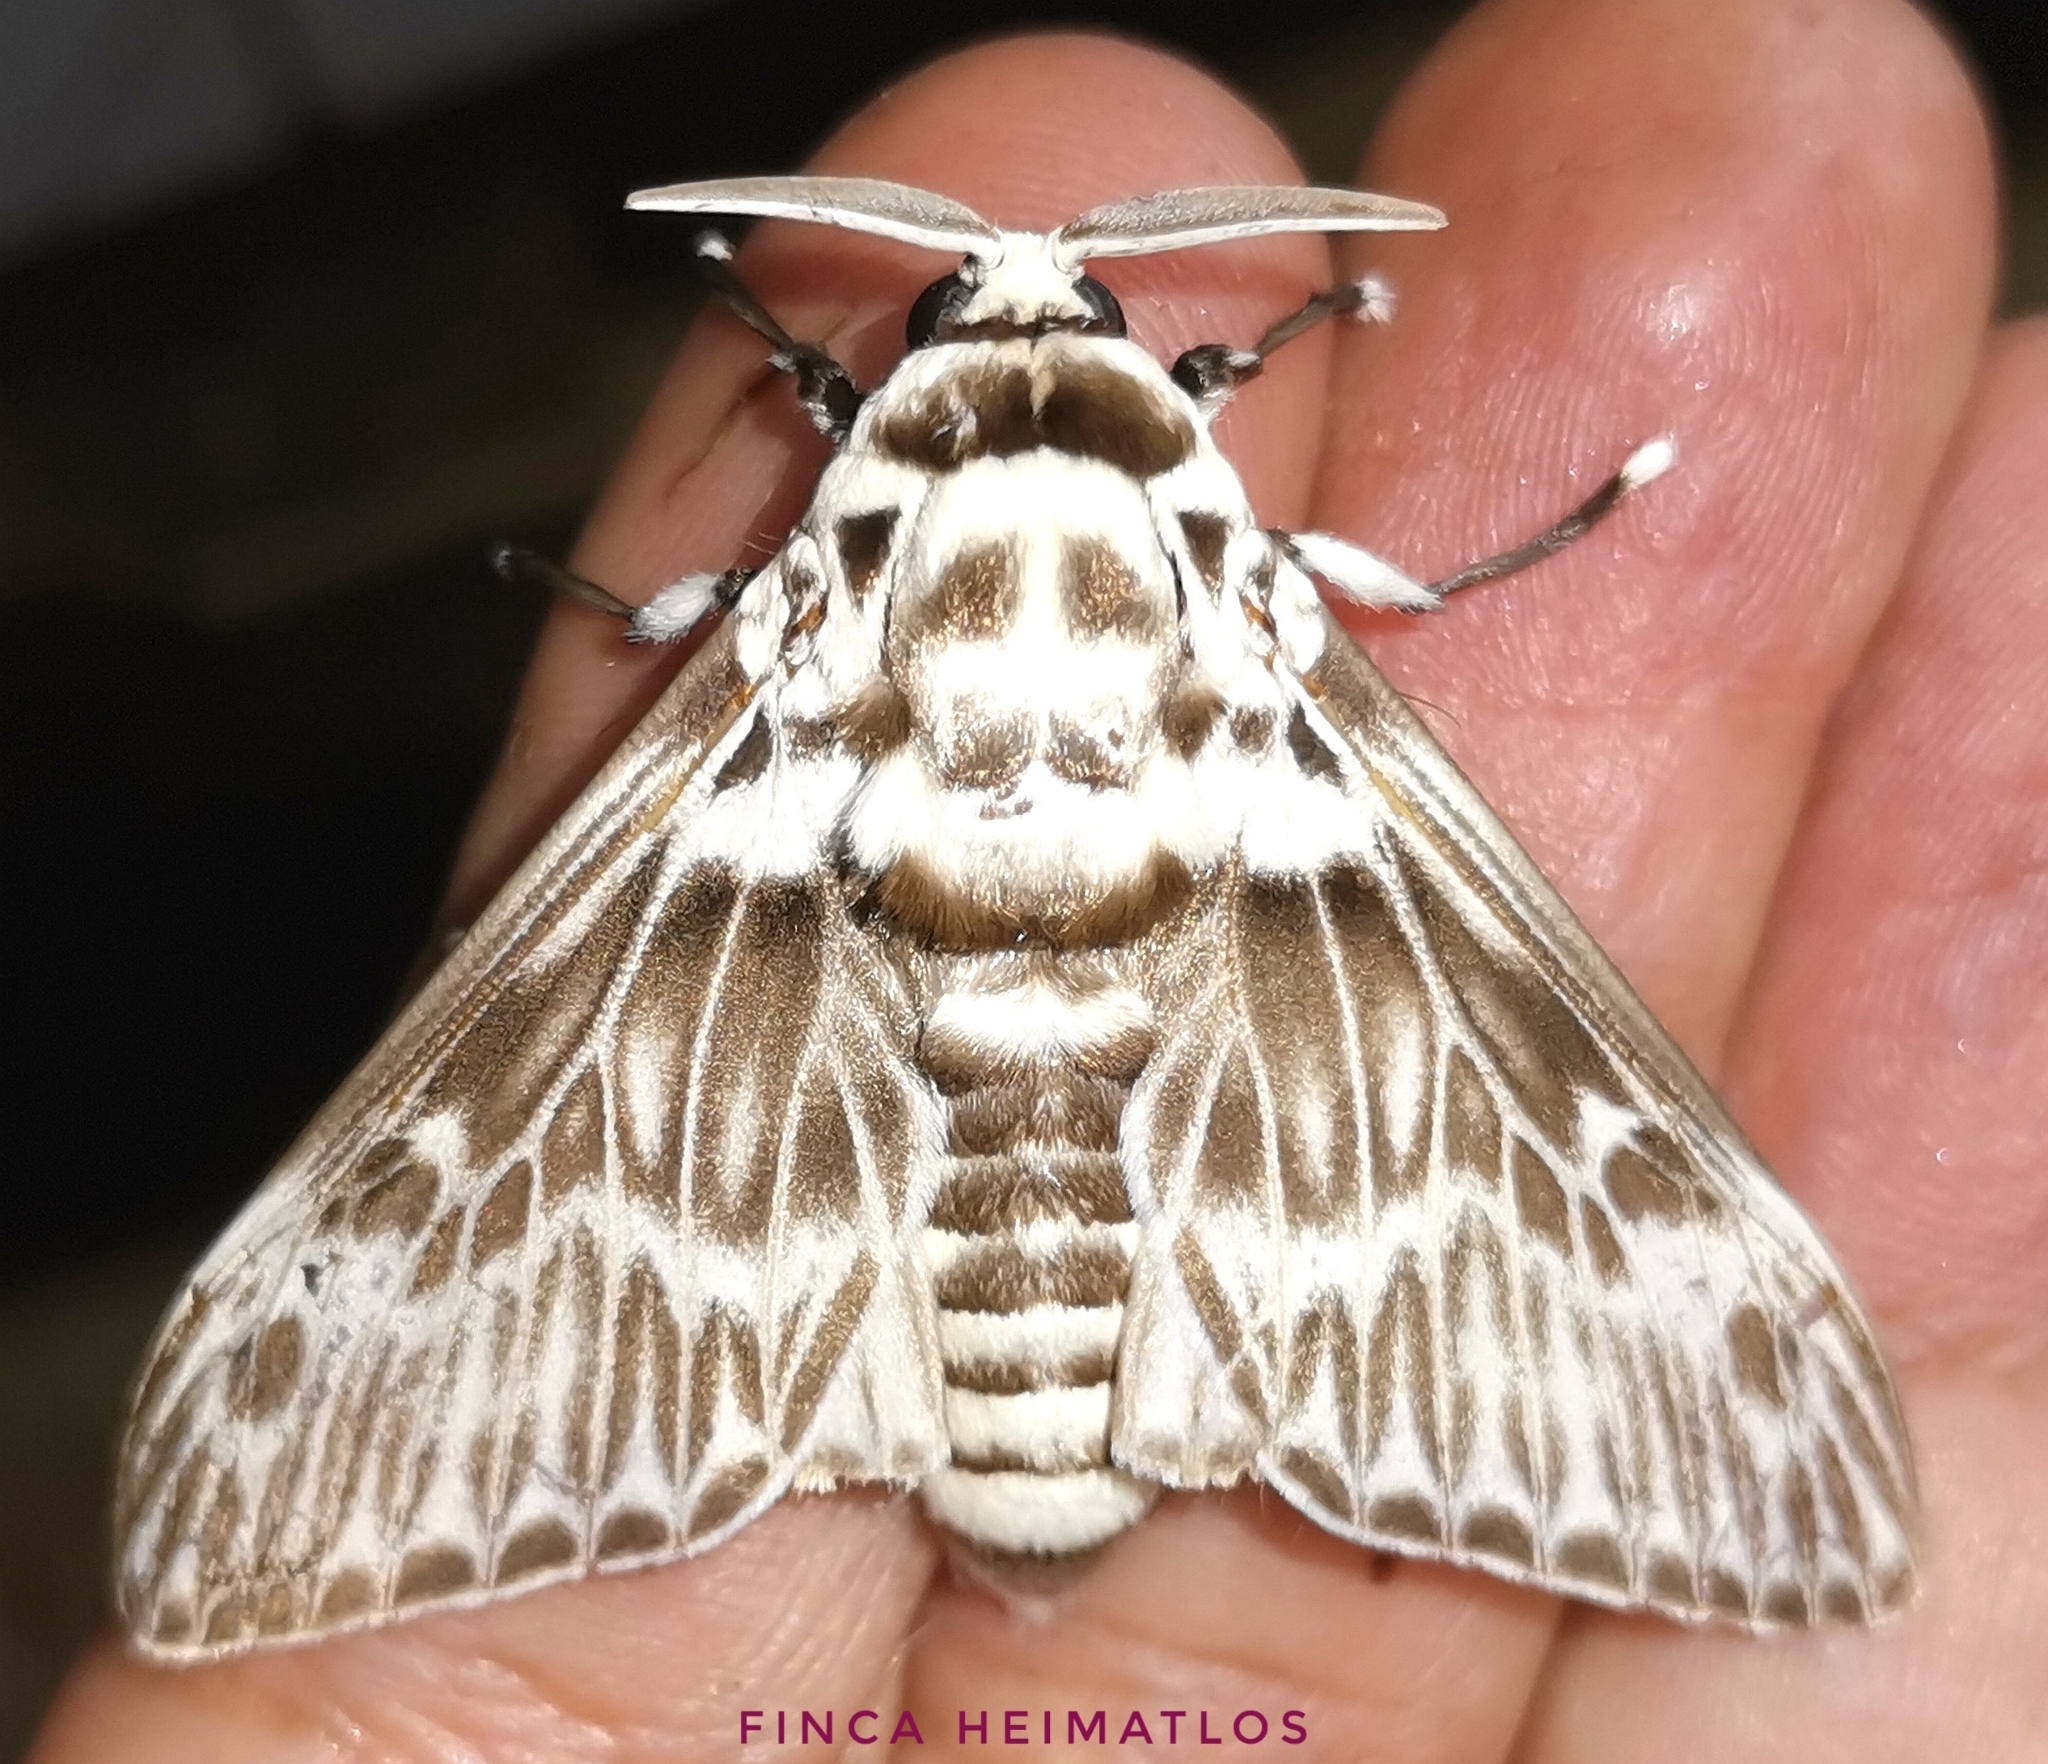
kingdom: Animalia
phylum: Arthropoda
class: Insecta
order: Lepidoptera
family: Megalopygidae
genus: Podalia
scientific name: Podalia orsilochus
